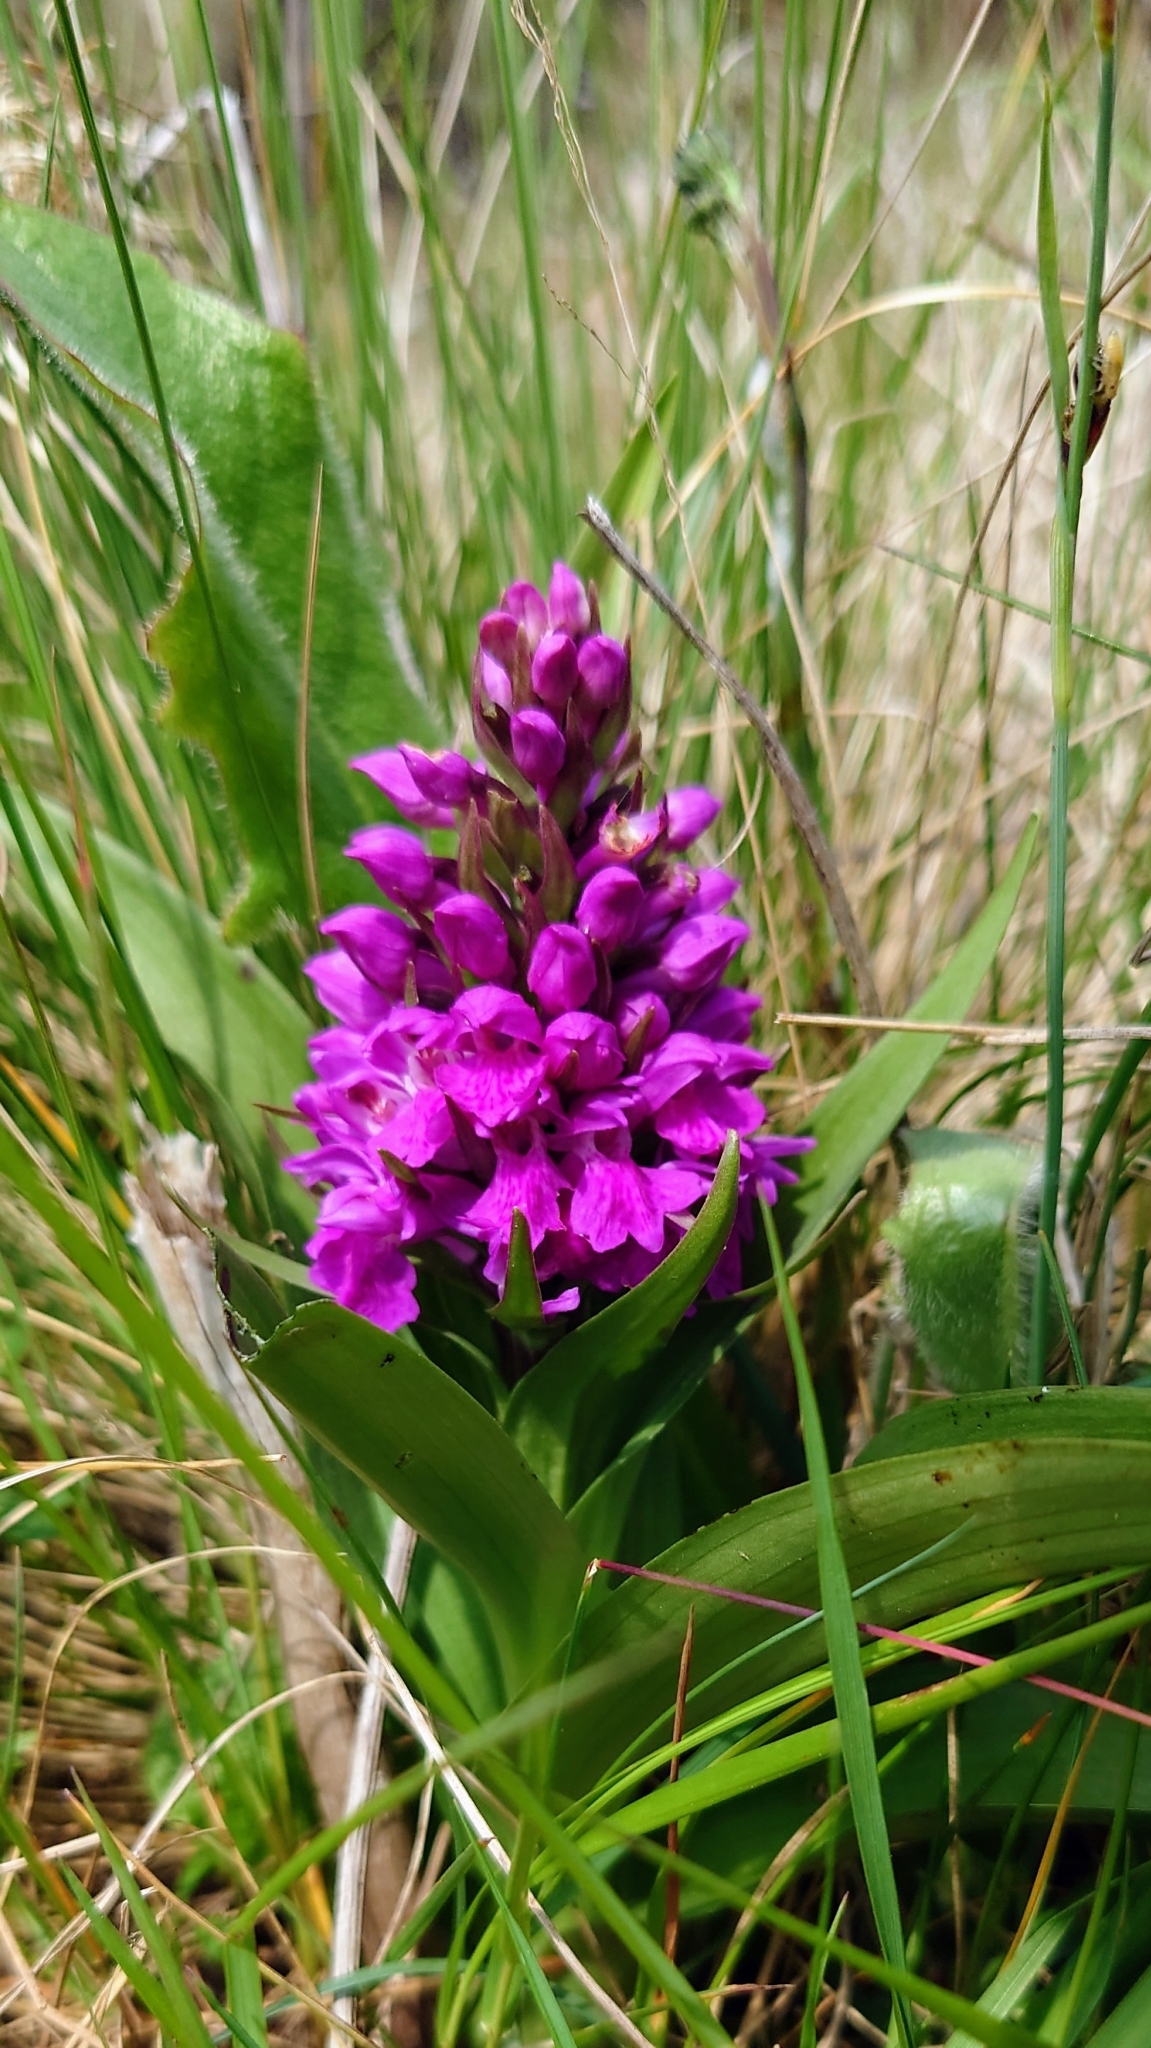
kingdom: Plantae
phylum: Tracheophyta
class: Liliopsida
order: Asparagales
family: Orchidaceae
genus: Dactylorhiza
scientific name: Dactylorhiza majalis
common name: Marsh orchid
